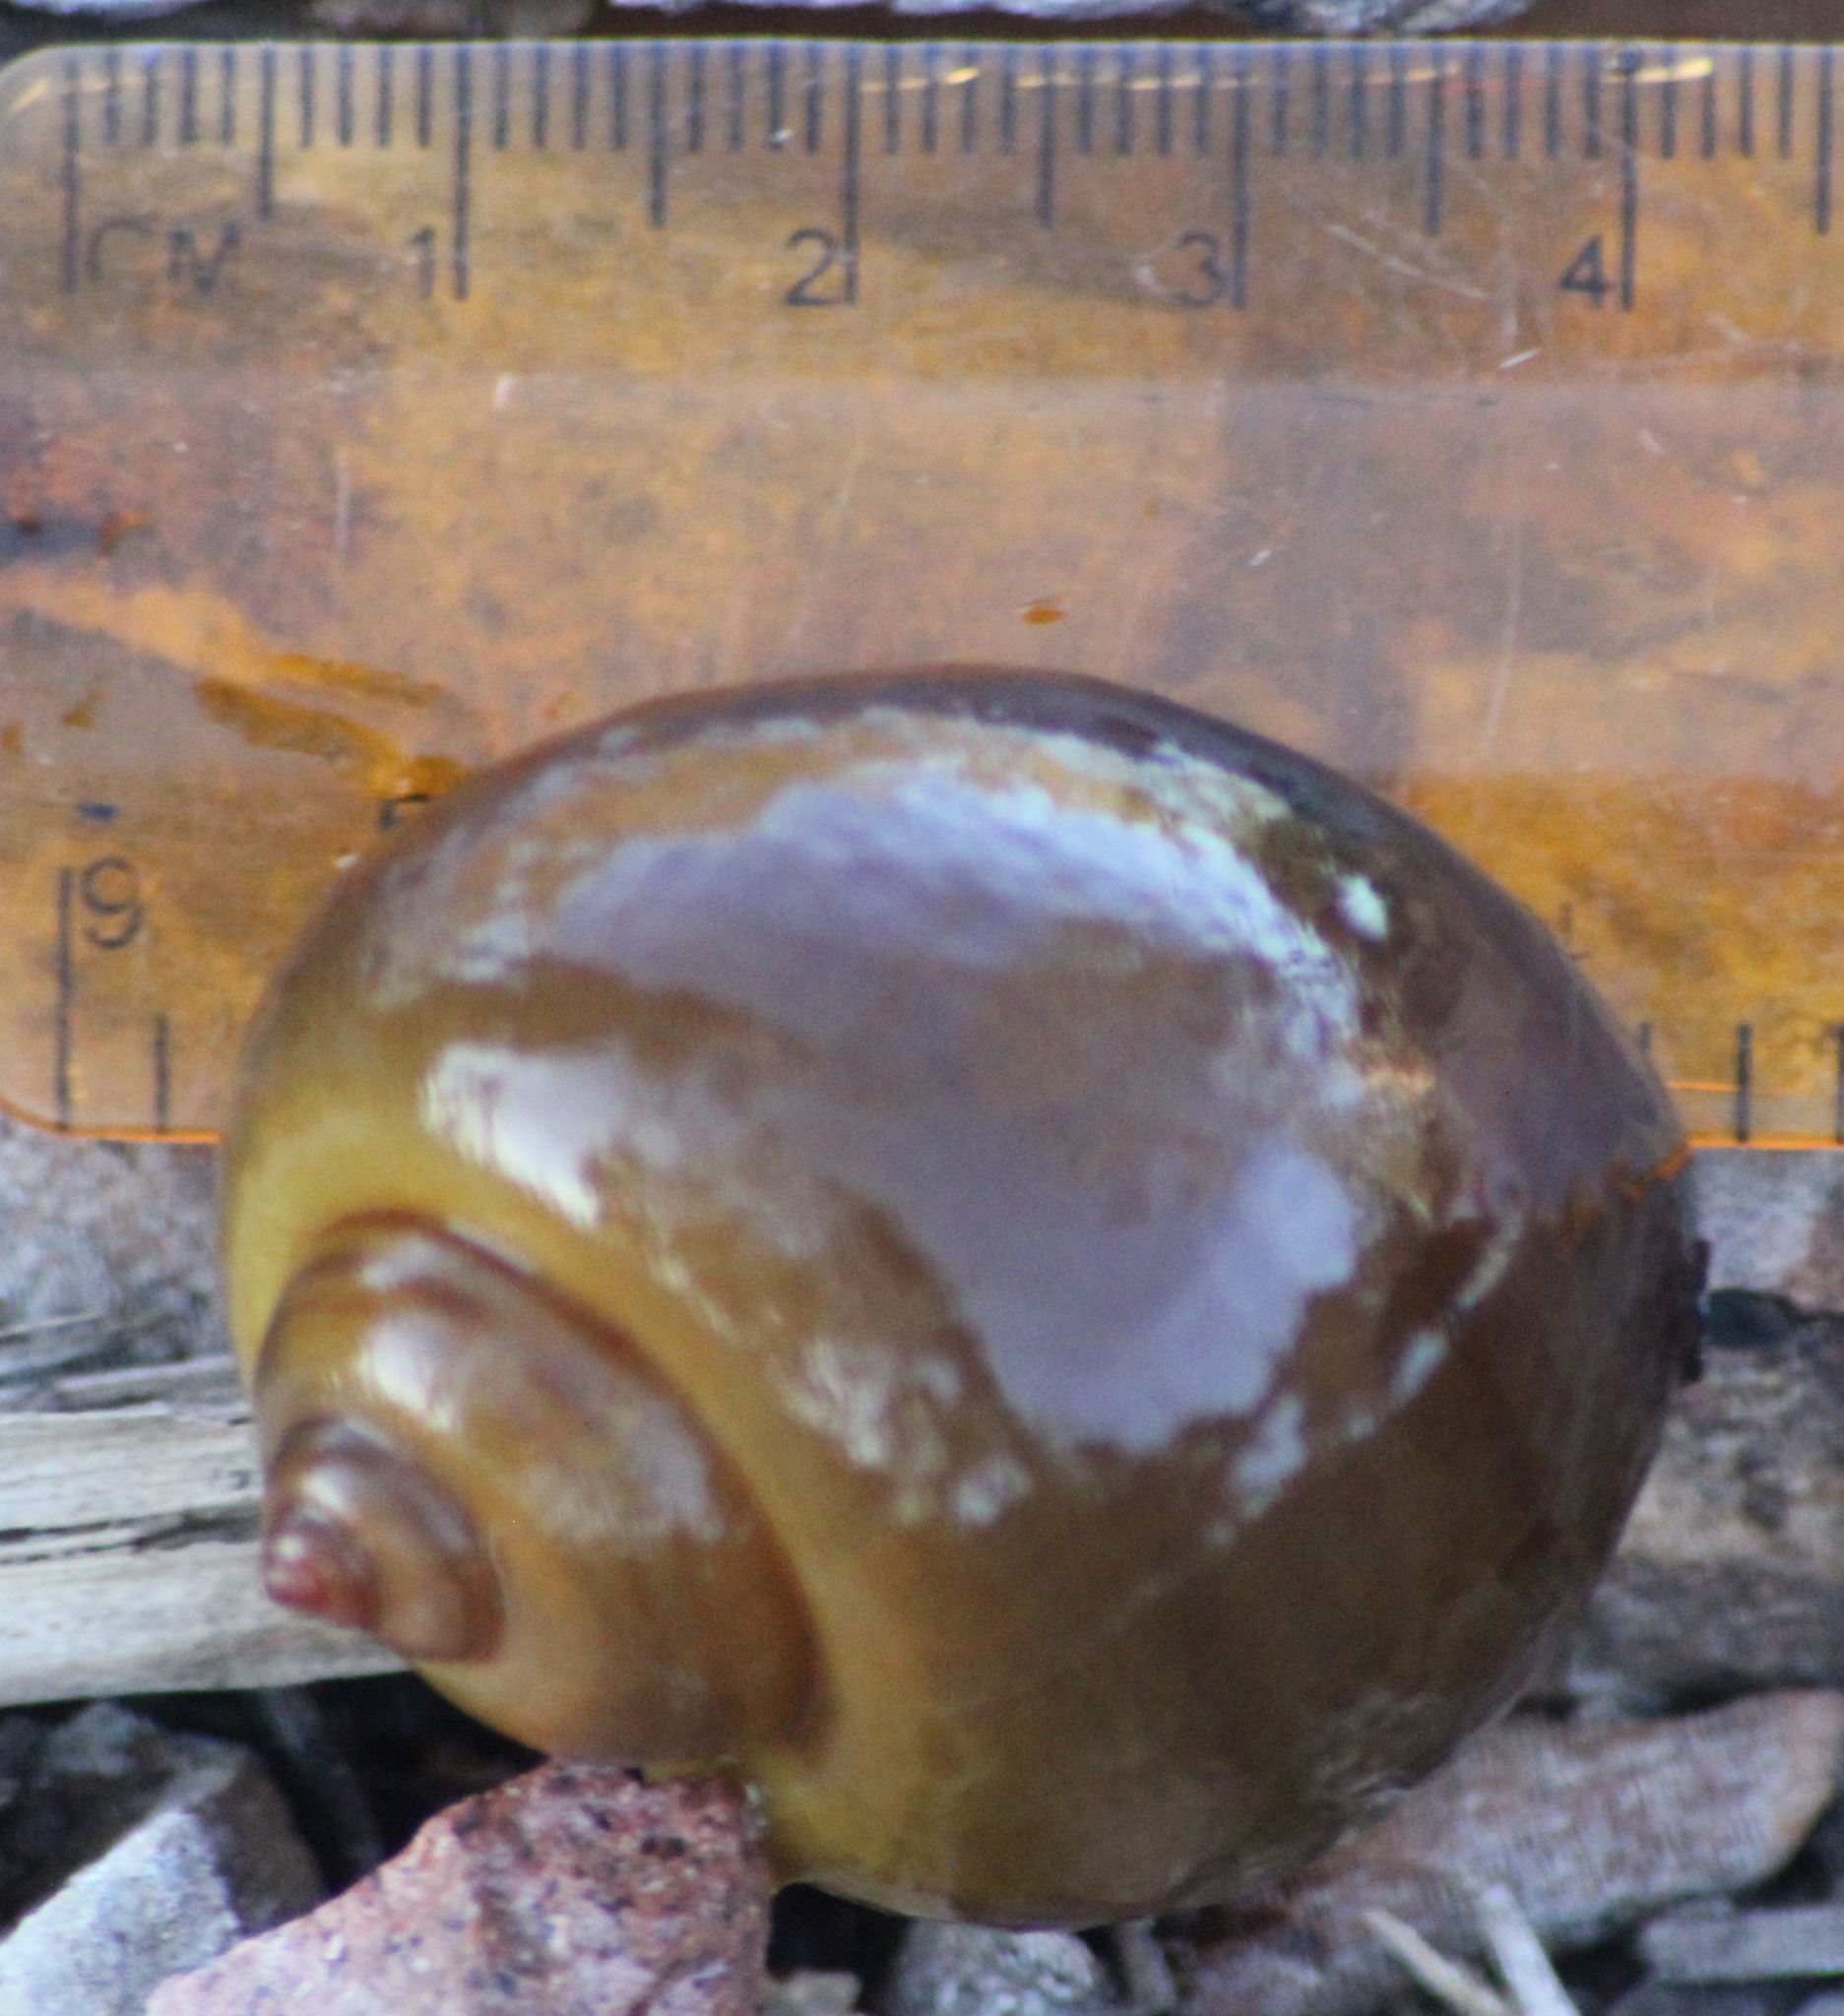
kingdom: Animalia
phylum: Mollusca
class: Gastropoda
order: Architaenioglossa
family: Ampullariidae
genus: Pomacea
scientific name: Pomacea canaliculata
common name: Channeled applesnail
